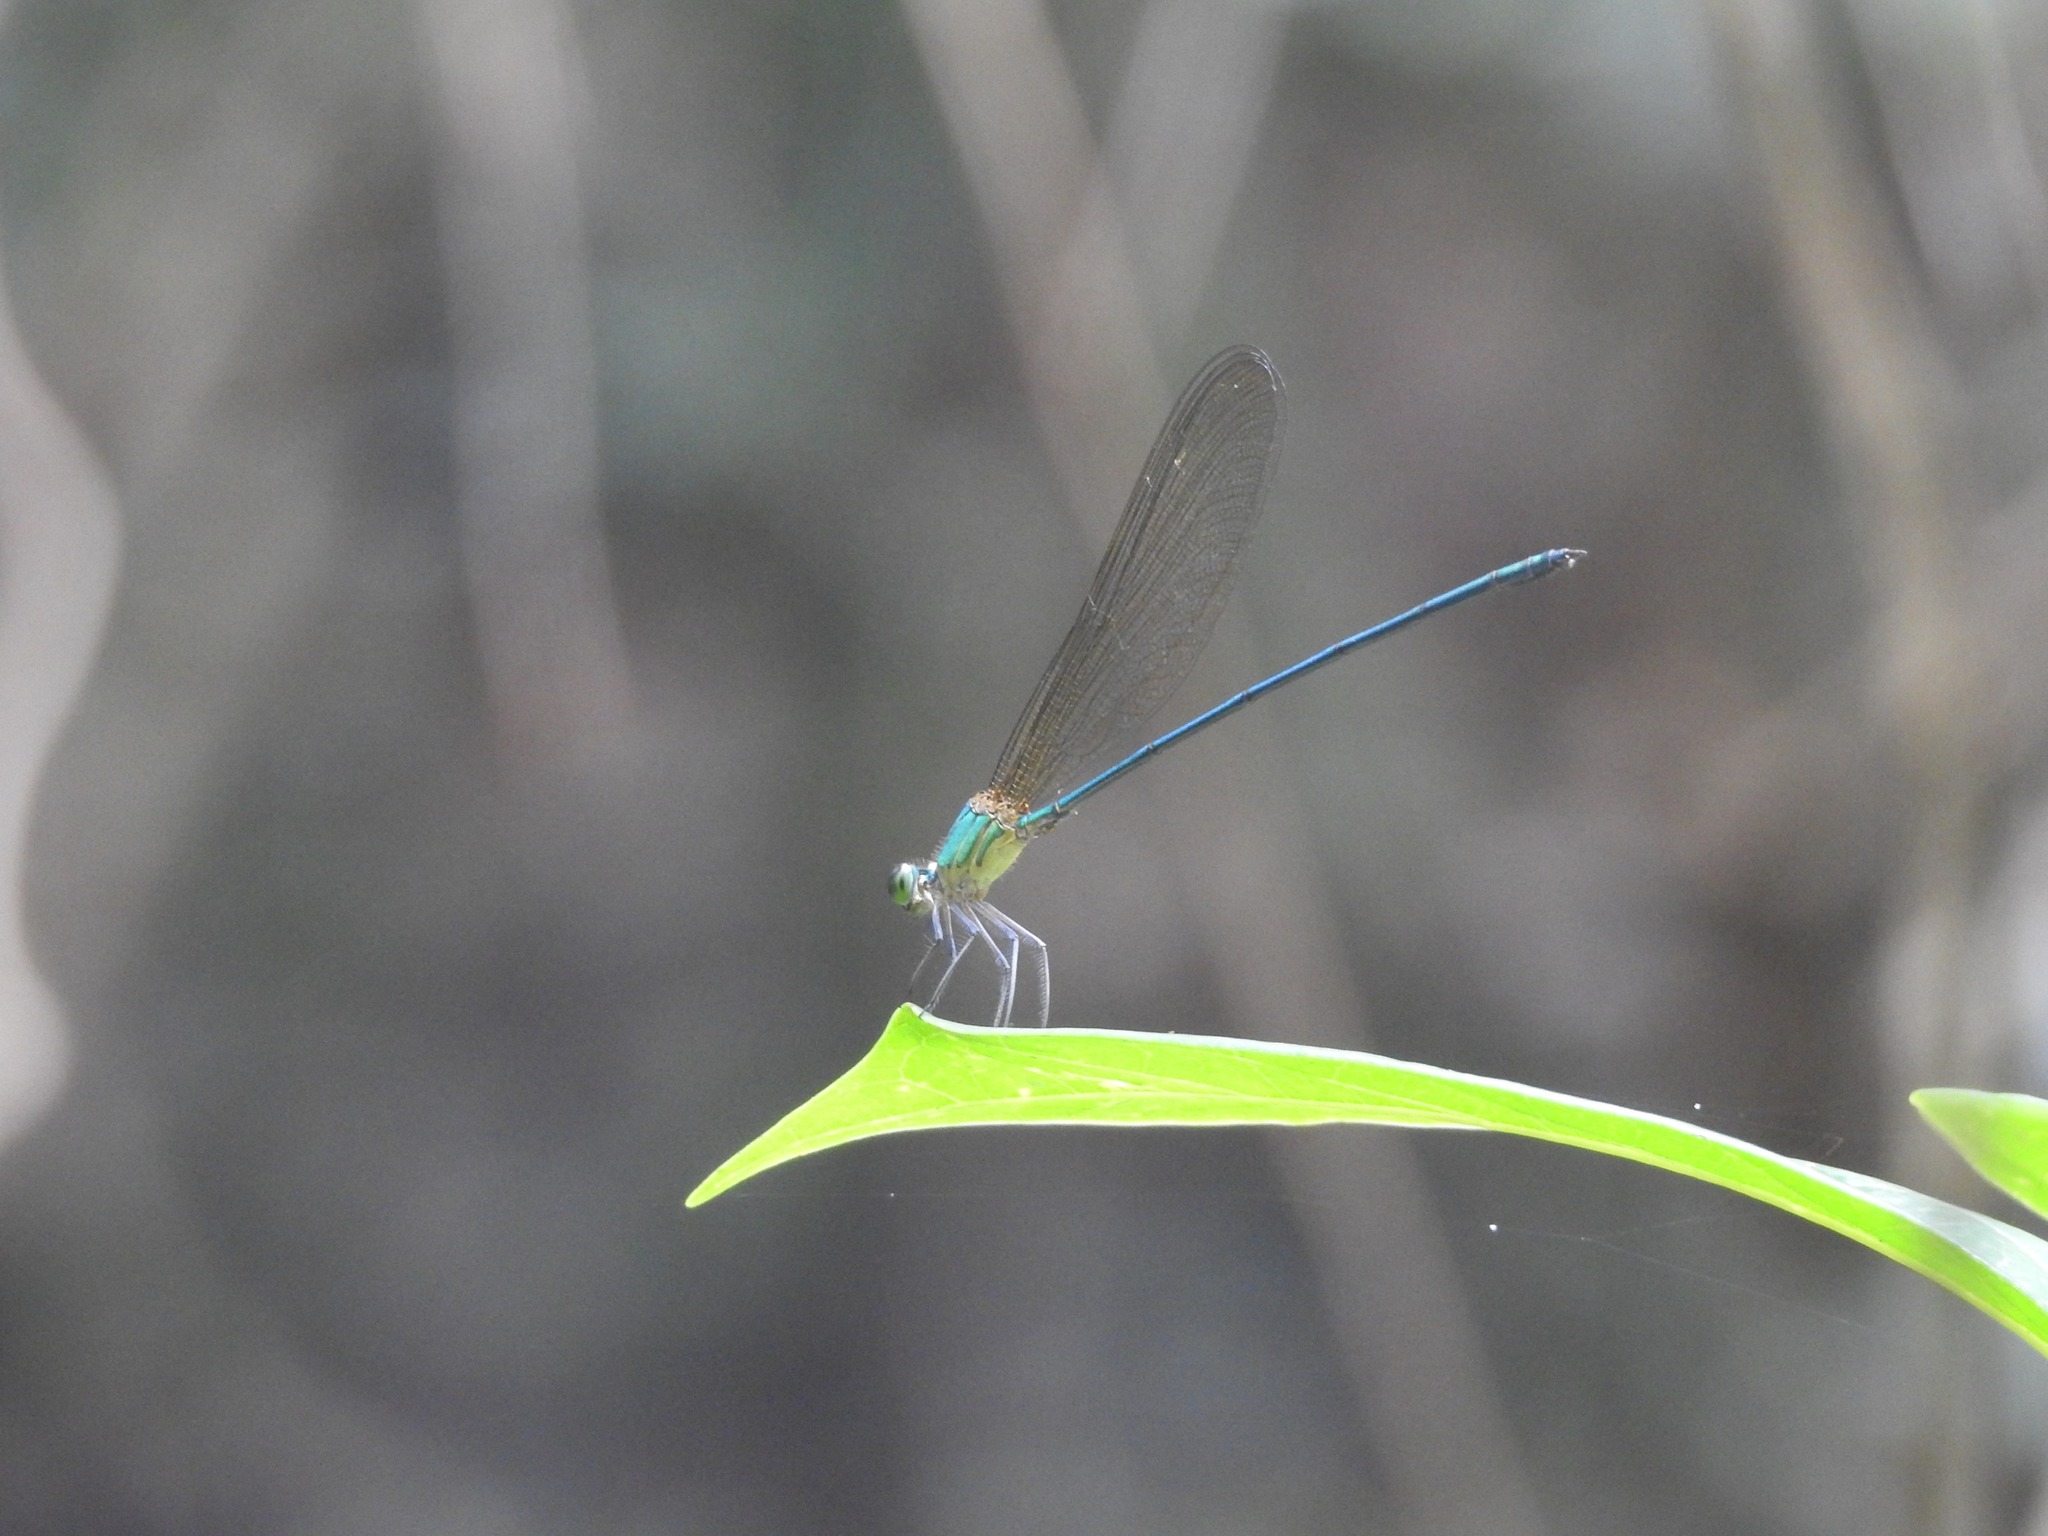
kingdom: Animalia
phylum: Arthropoda
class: Insecta
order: Odonata
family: Calopterygidae
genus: Vestalis
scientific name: Vestalis gracilis
